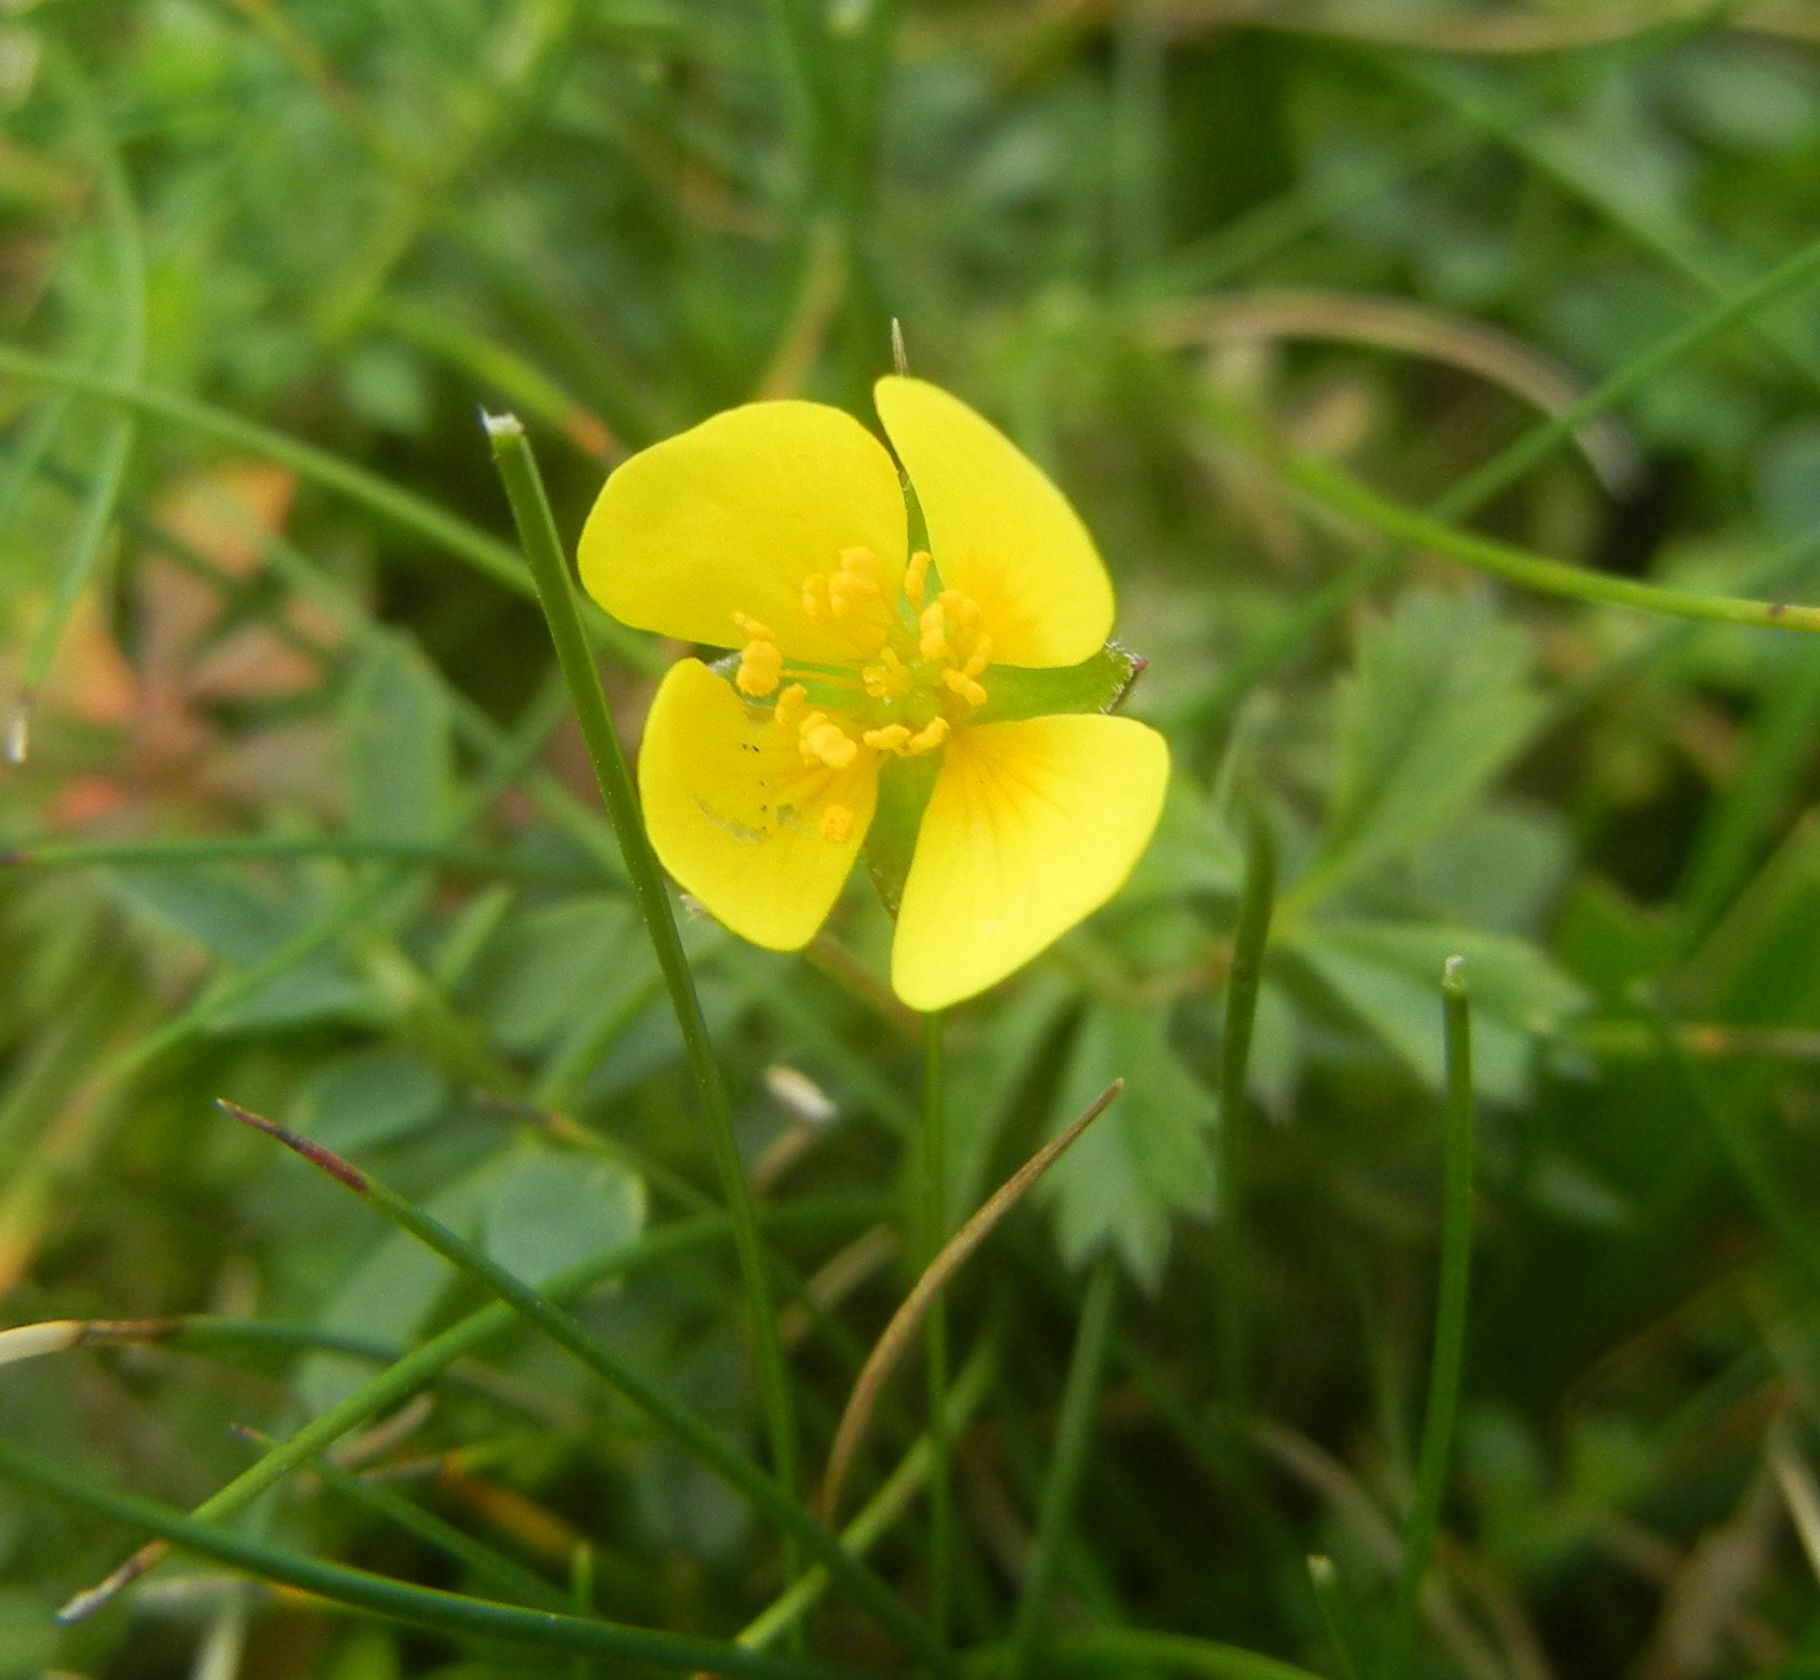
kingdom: Plantae
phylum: Tracheophyta
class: Magnoliopsida
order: Rosales
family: Rosaceae
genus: Potentilla
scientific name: Potentilla erecta
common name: Tormentil
